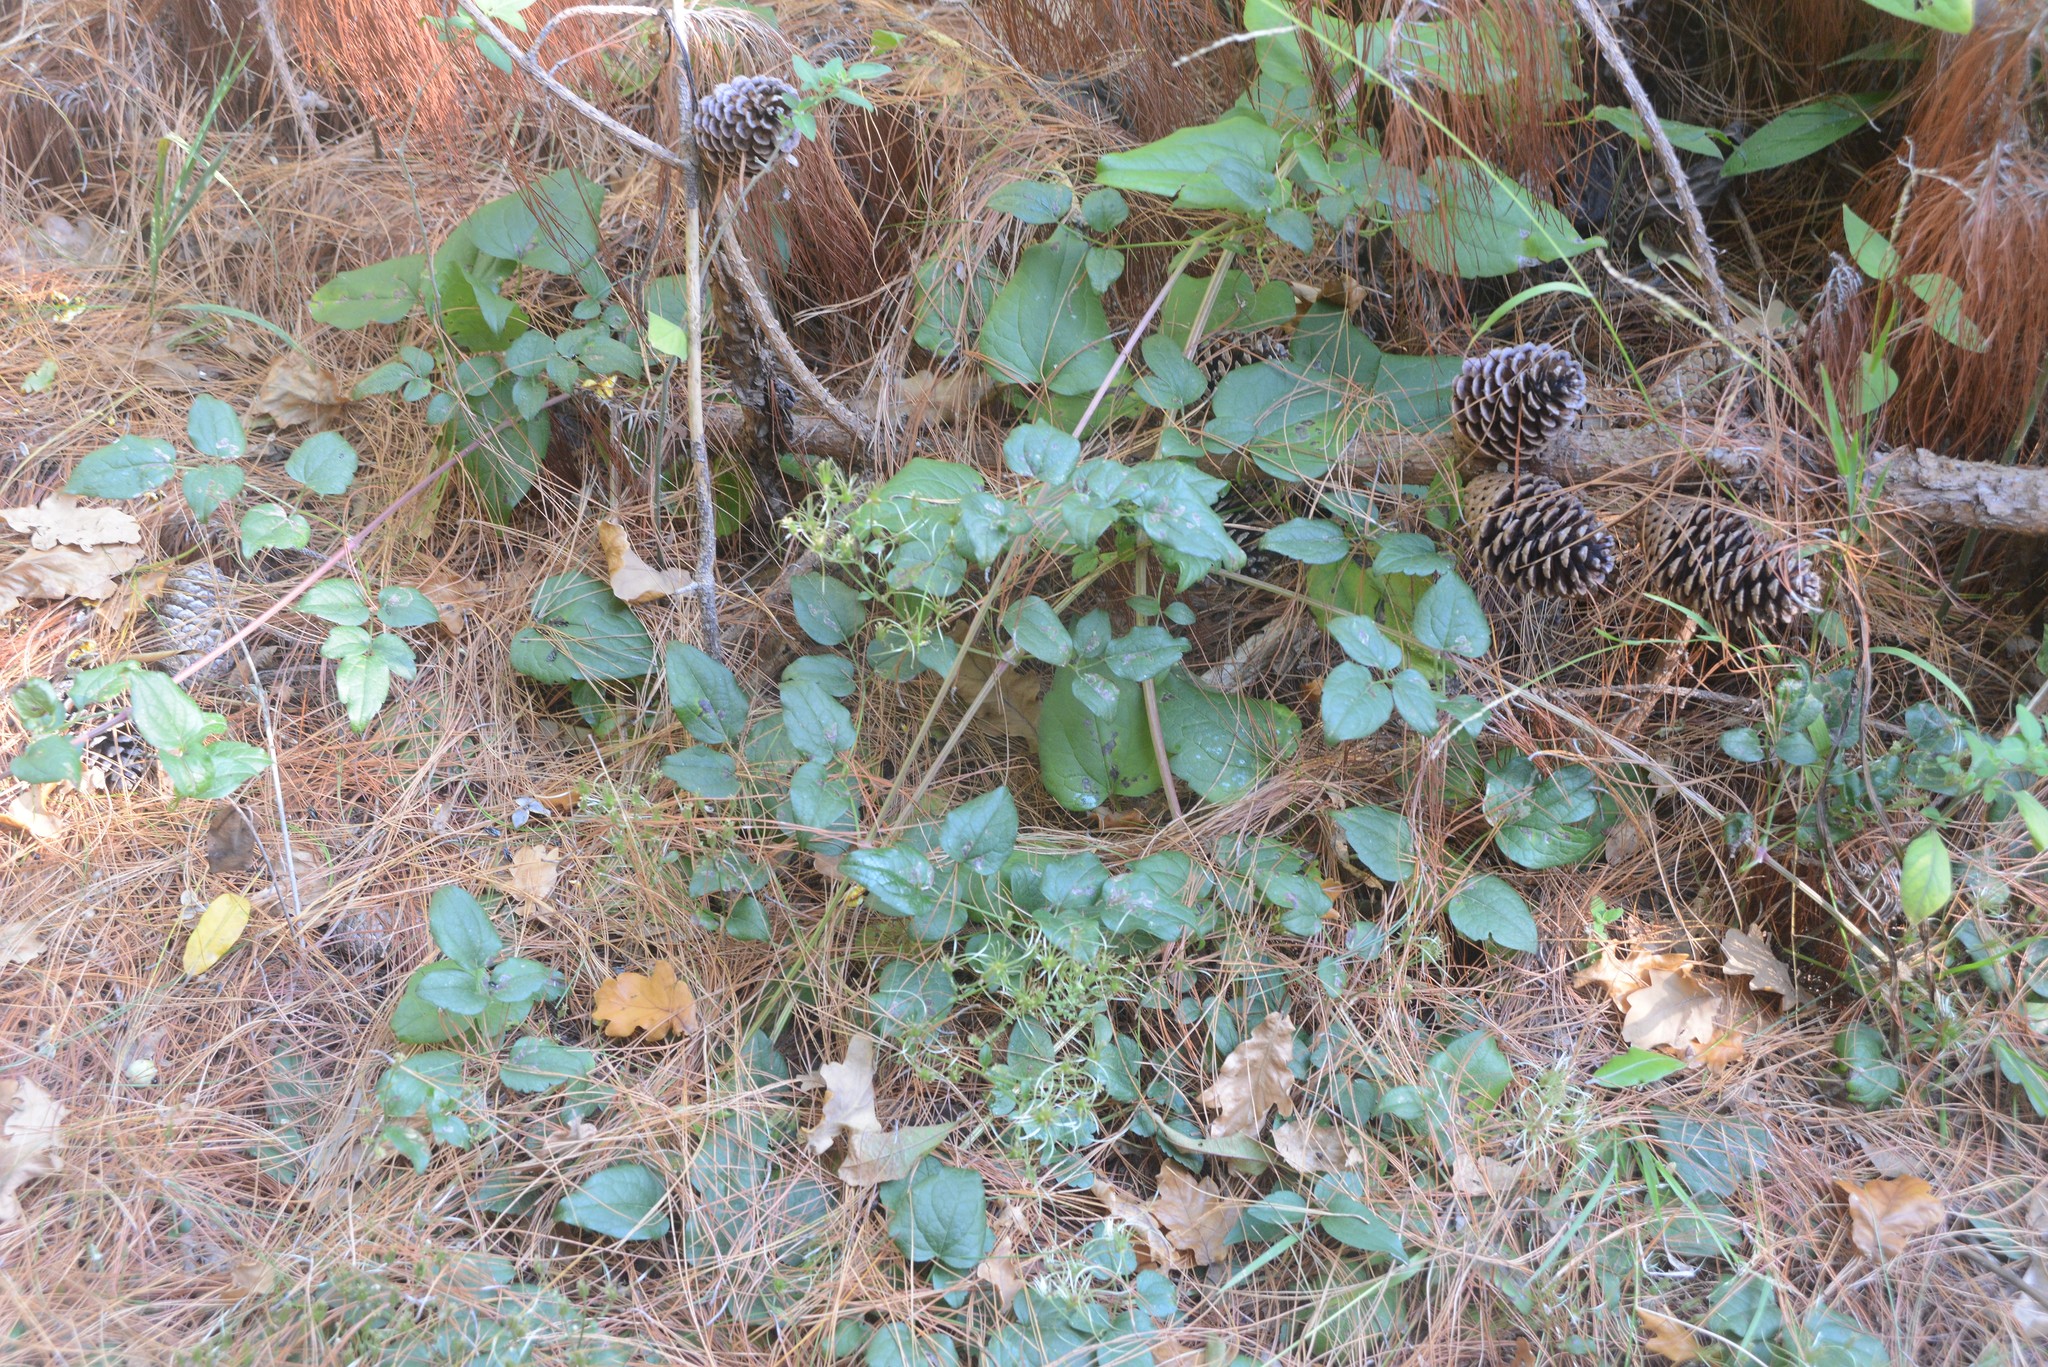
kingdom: Plantae
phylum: Tracheophyta
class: Magnoliopsida
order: Ranunculales
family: Ranunculaceae
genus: Clematis
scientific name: Clematis vitalba
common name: Evergreen clematis
